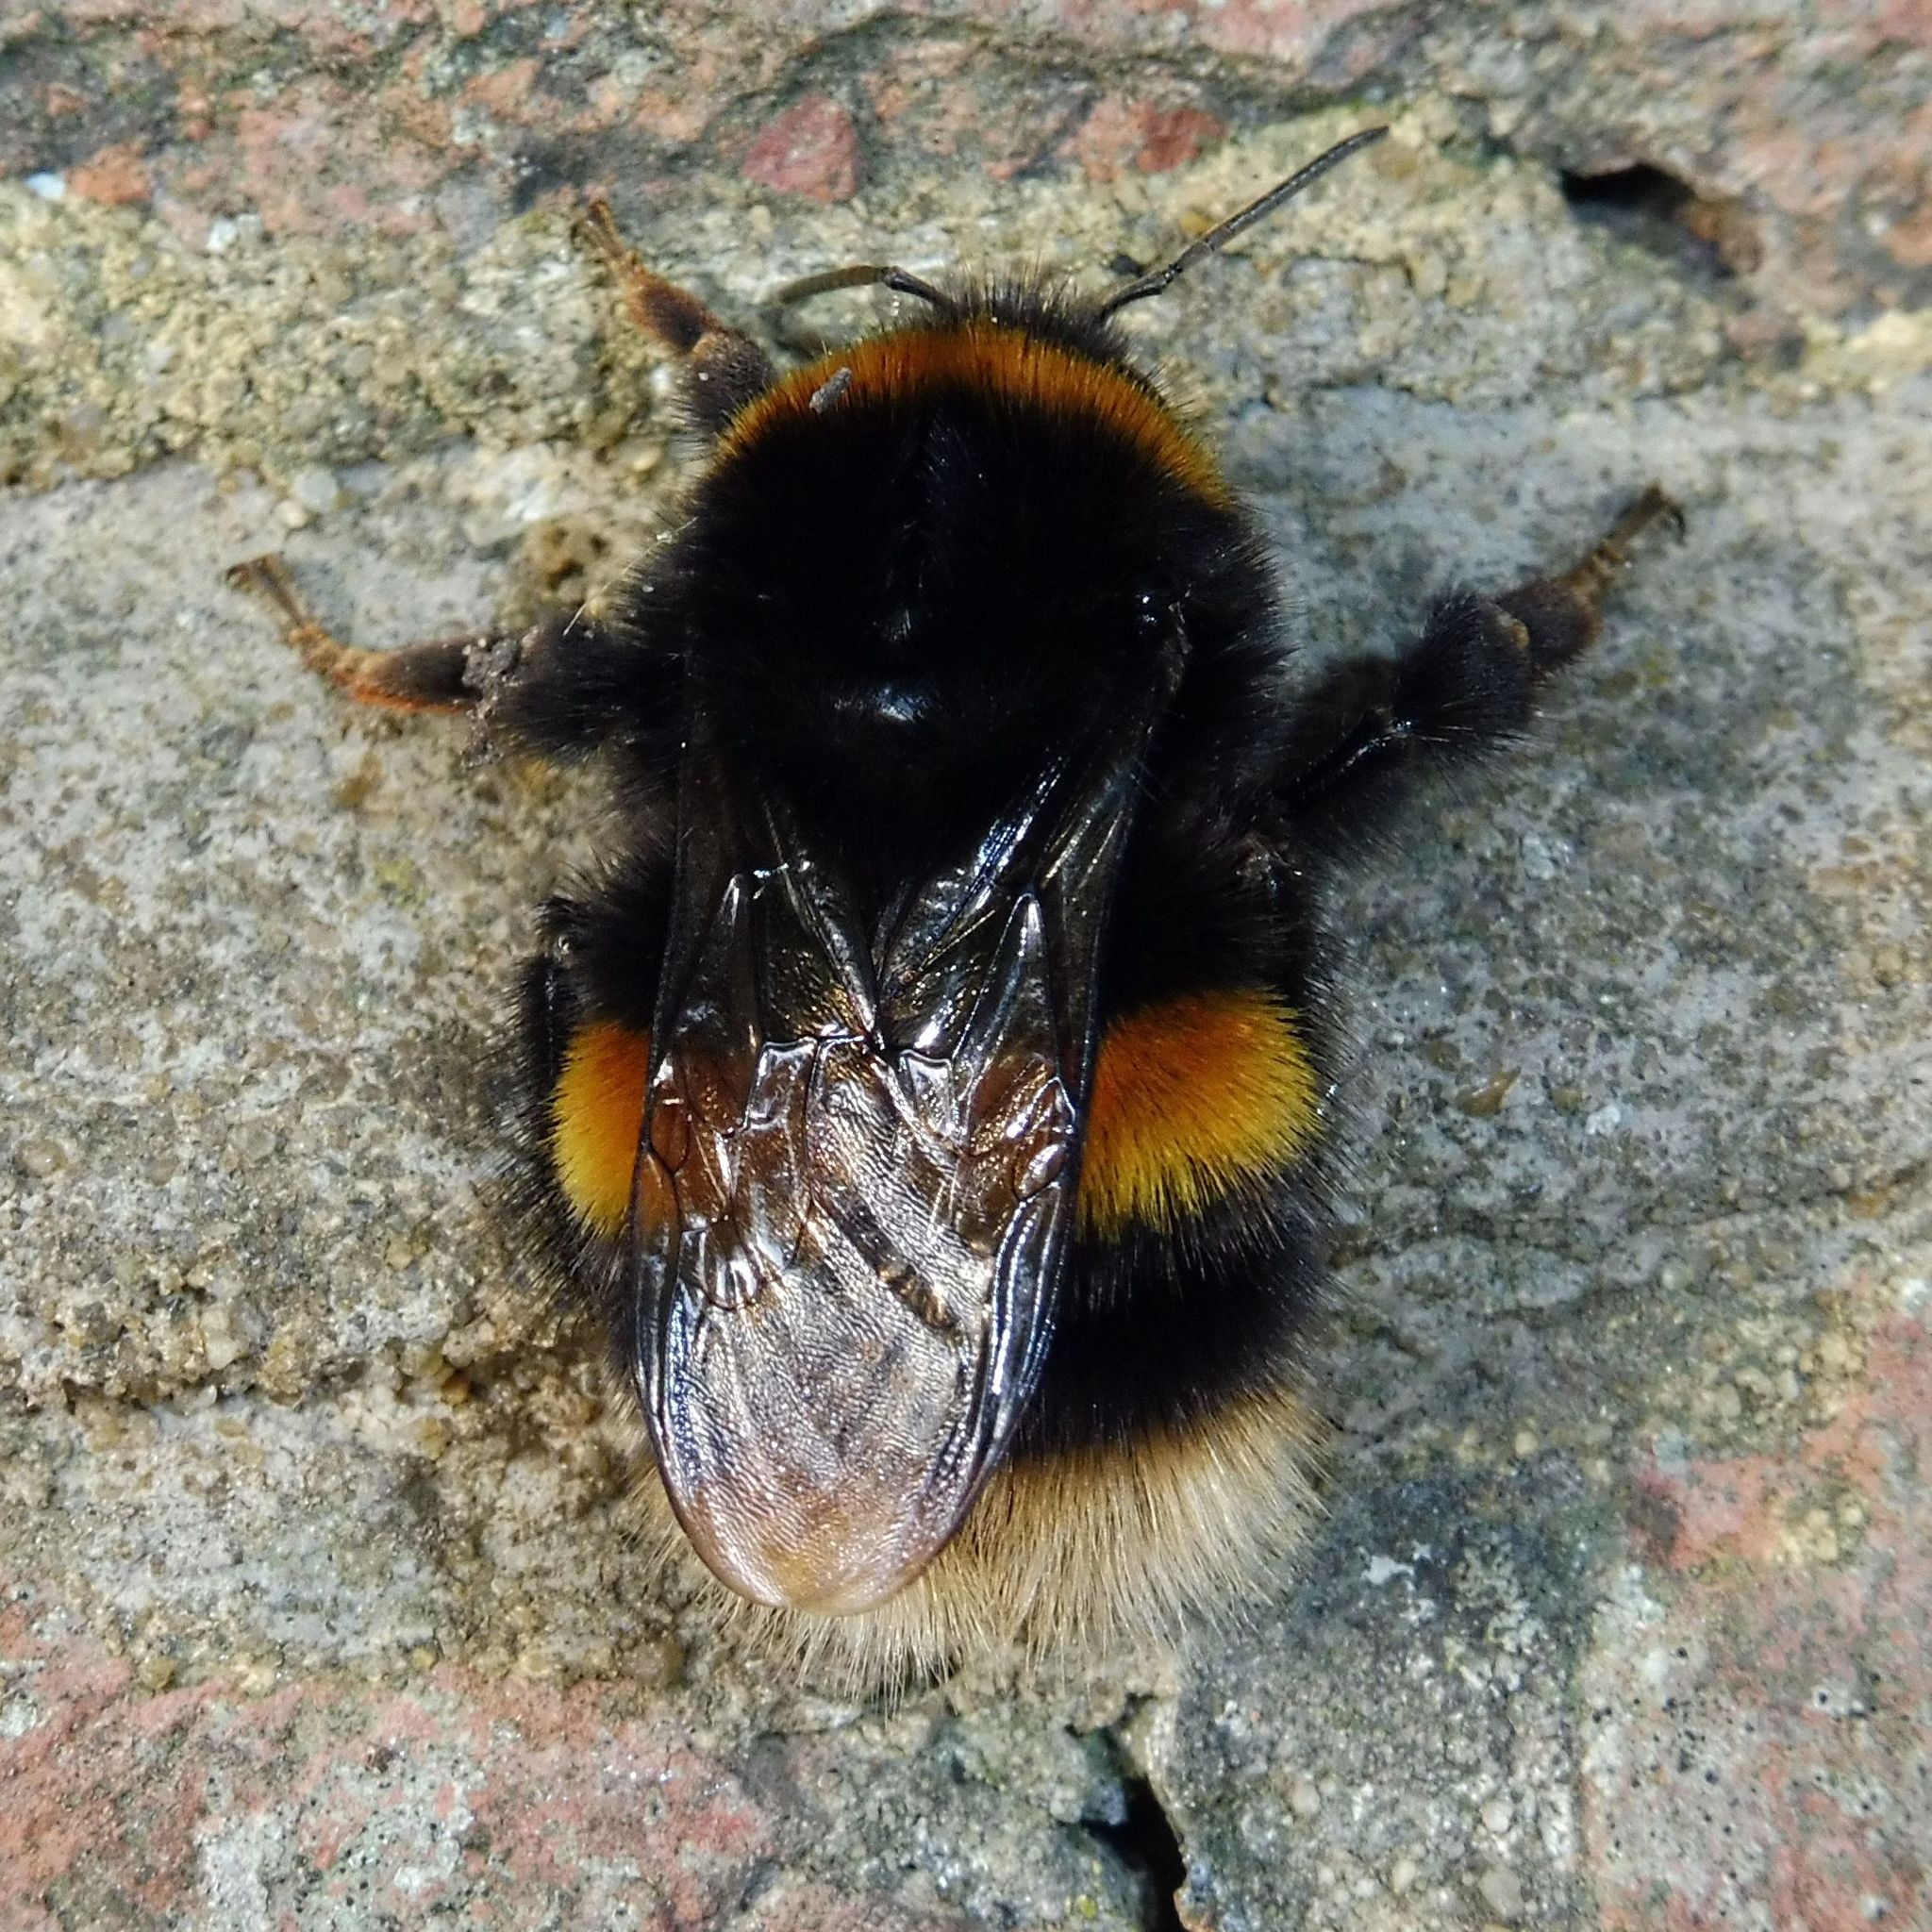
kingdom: Animalia
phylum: Arthropoda
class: Insecta
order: Hymenoptera
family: Apidae
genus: Bombus
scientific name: Bombus terrestris
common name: Buff-tailed bumblebee
